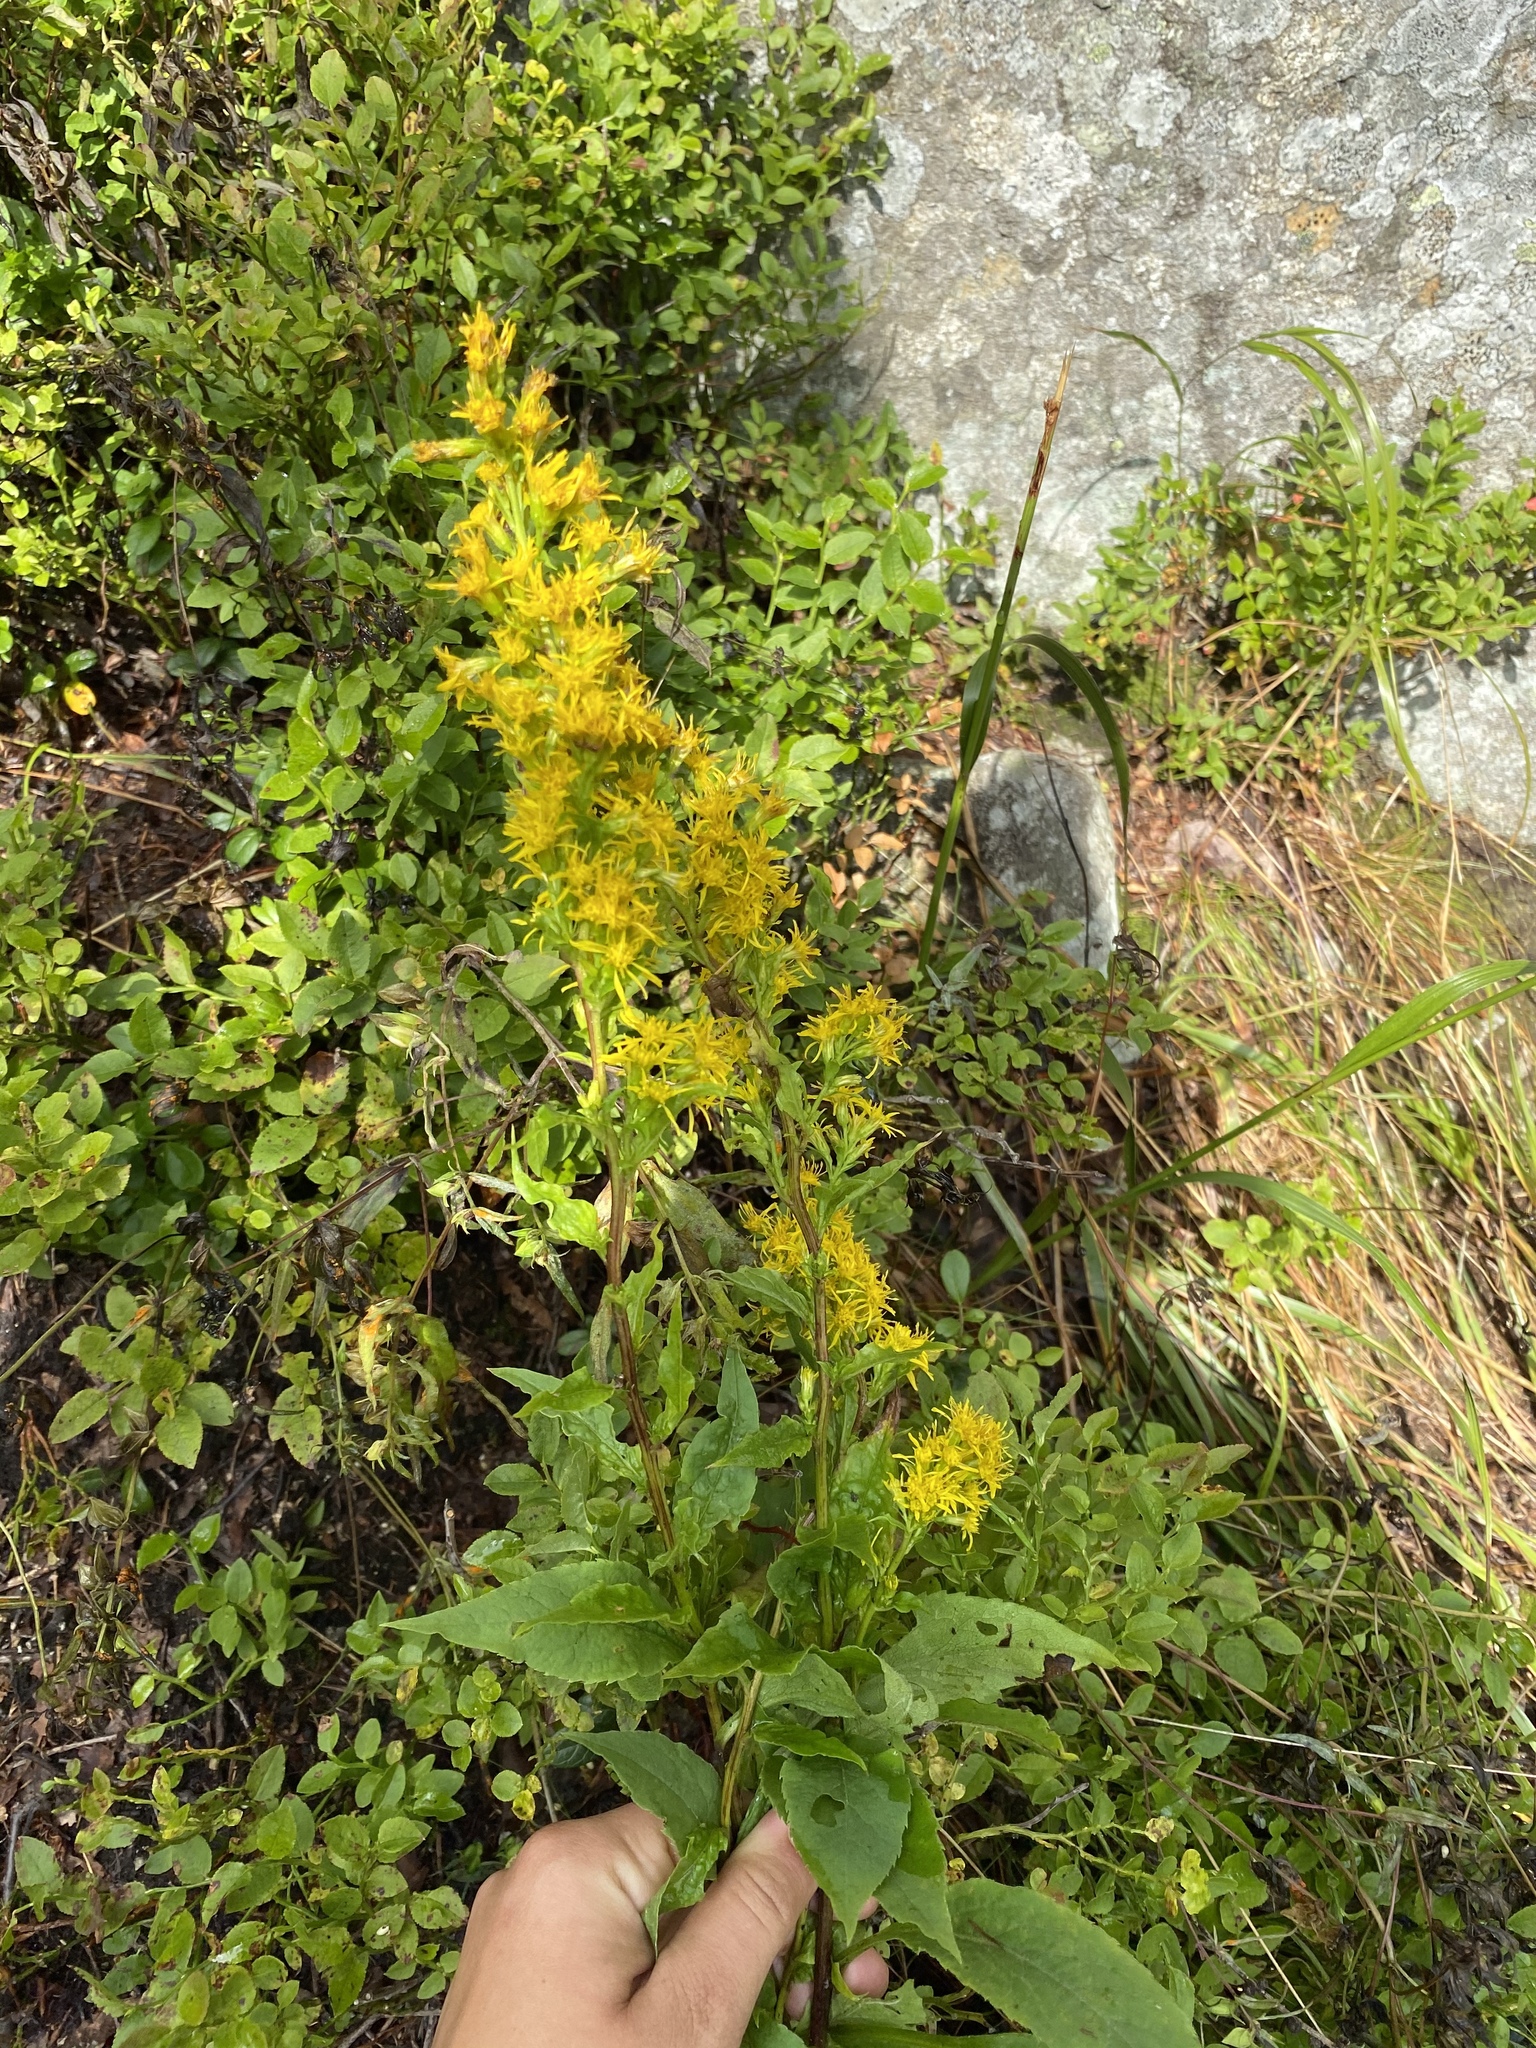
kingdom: Plantae
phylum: Tracheophyta
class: Magnoliopsida
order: Asterales
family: Asteraceae
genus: Solidago
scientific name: Solidago virgaurea
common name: Goldenrod
